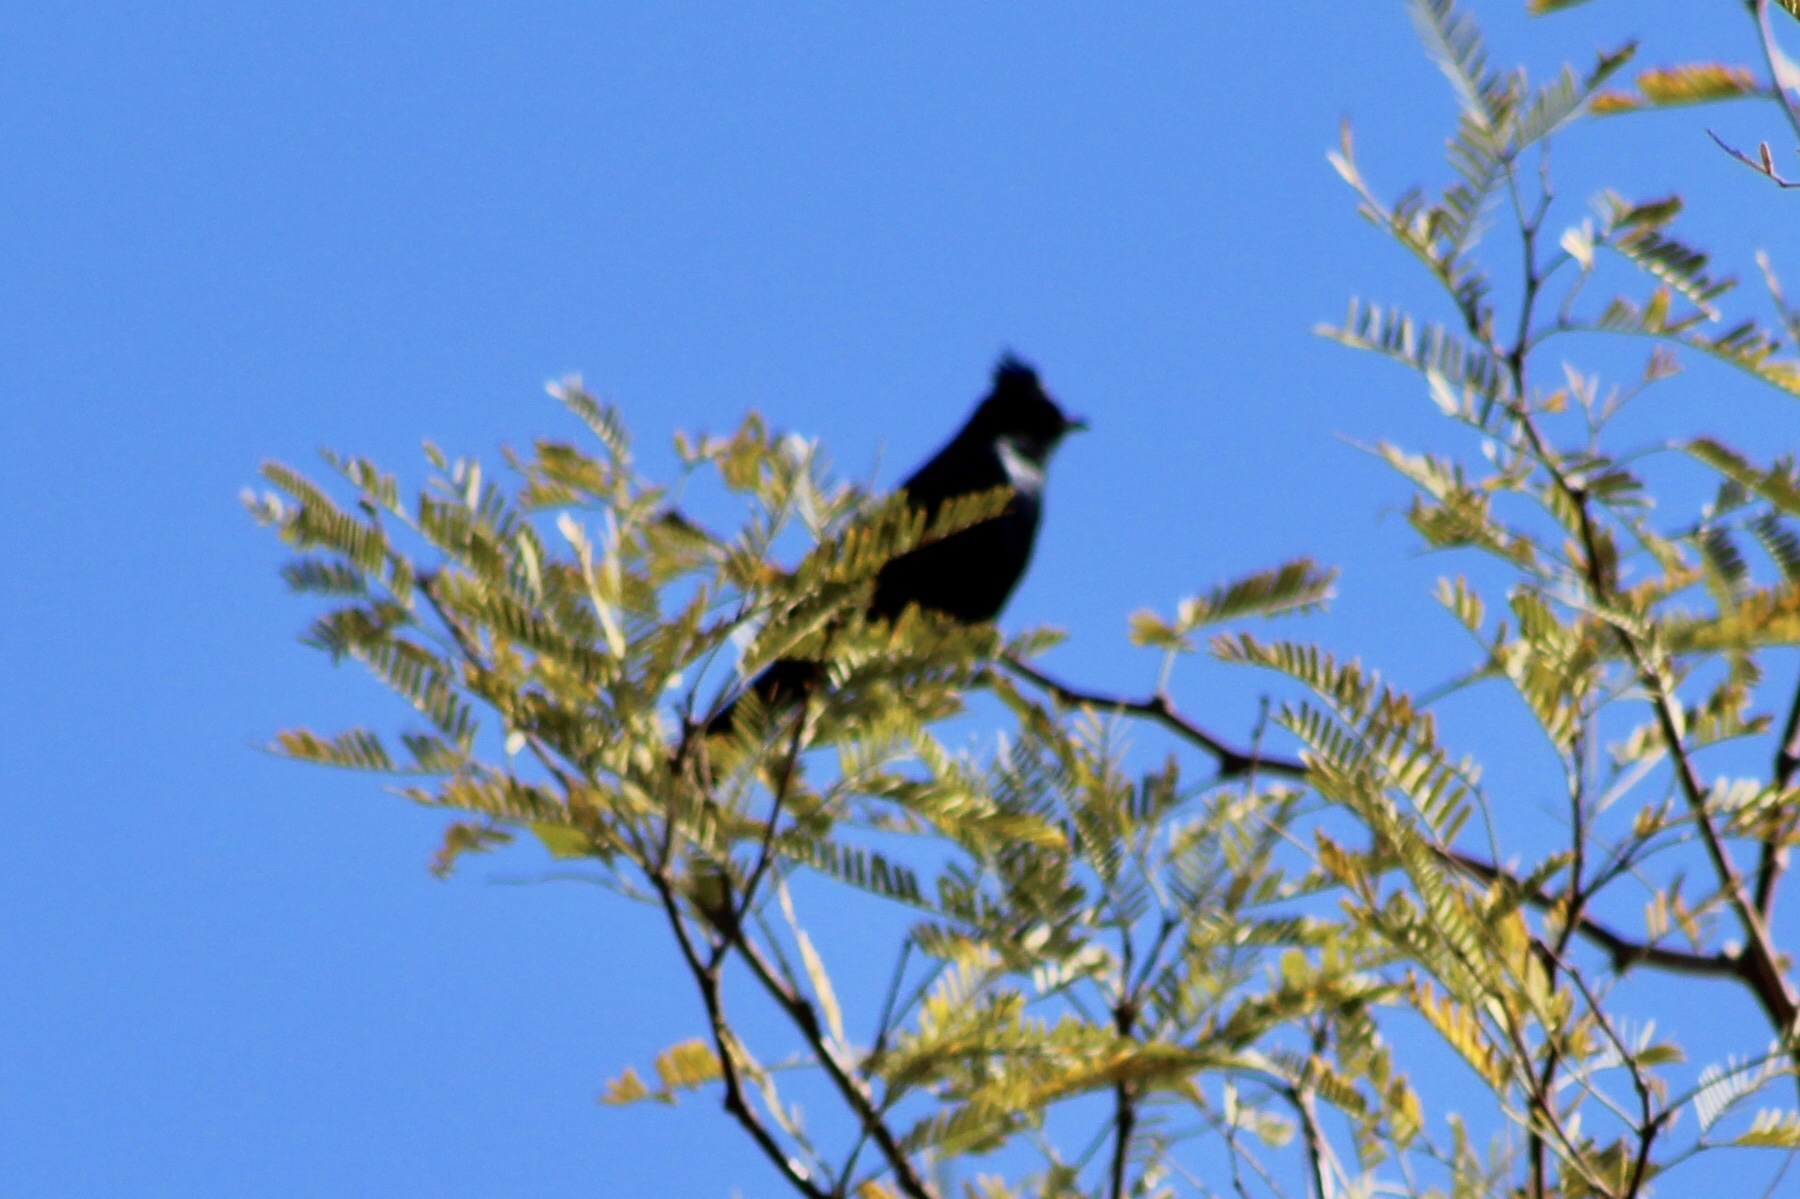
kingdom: Animalia
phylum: Chordata
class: Aves
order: Passeriformes
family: Ptilogonatidae
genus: Phainopepla
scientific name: Phainopepla nitens
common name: Phainopepla
